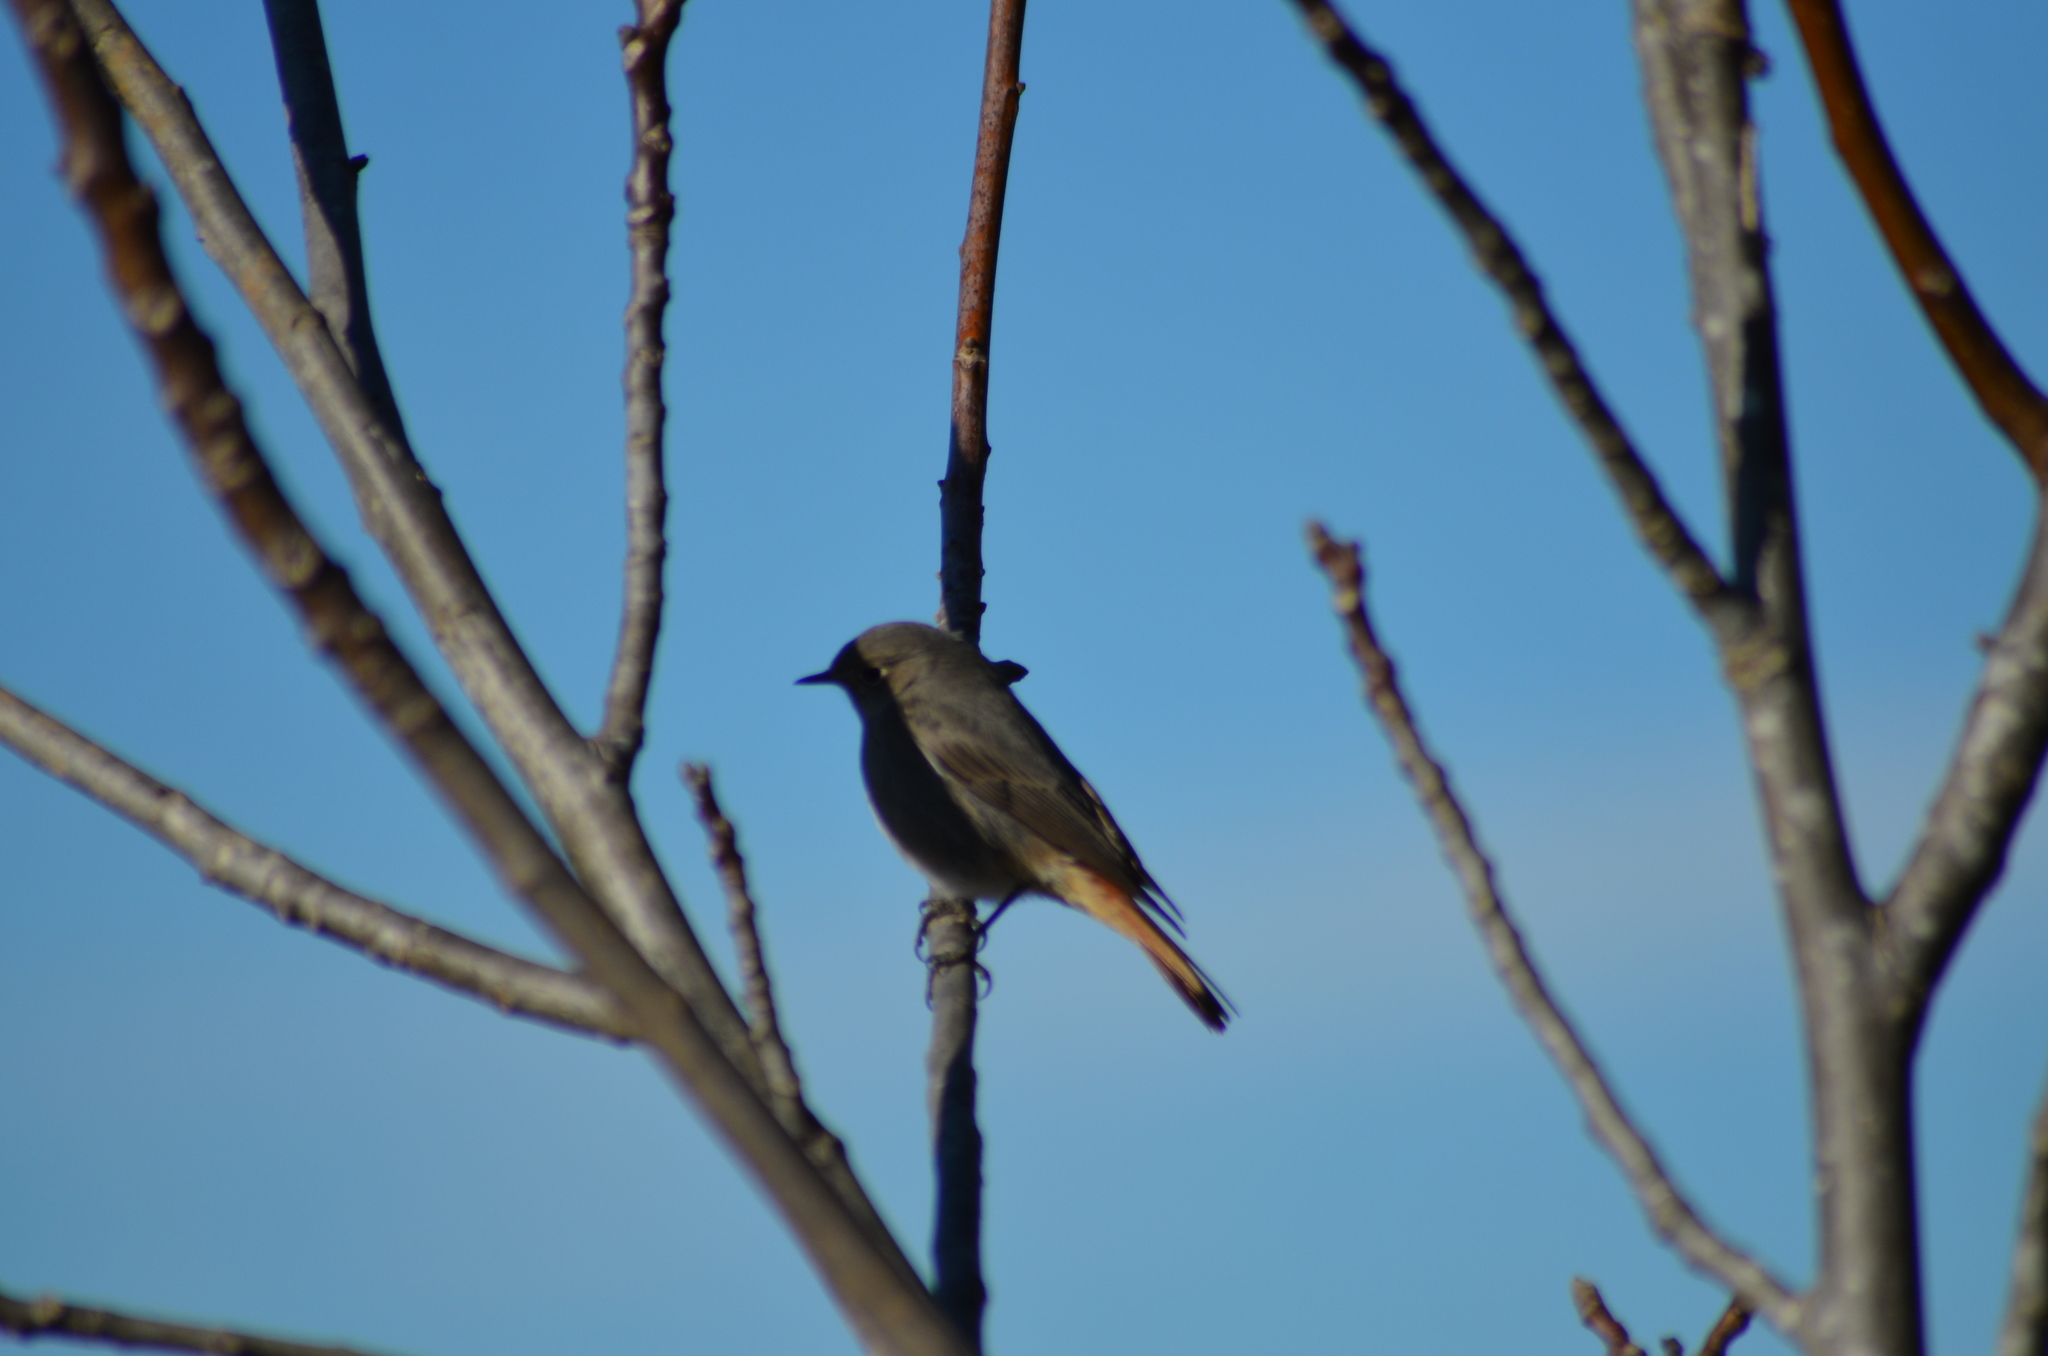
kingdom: Animalia
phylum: Chordata
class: Aves
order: Passeriformes
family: Muscicapidae
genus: Phoenicurus
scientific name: Phoenicurus ochruros
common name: Black redstart
